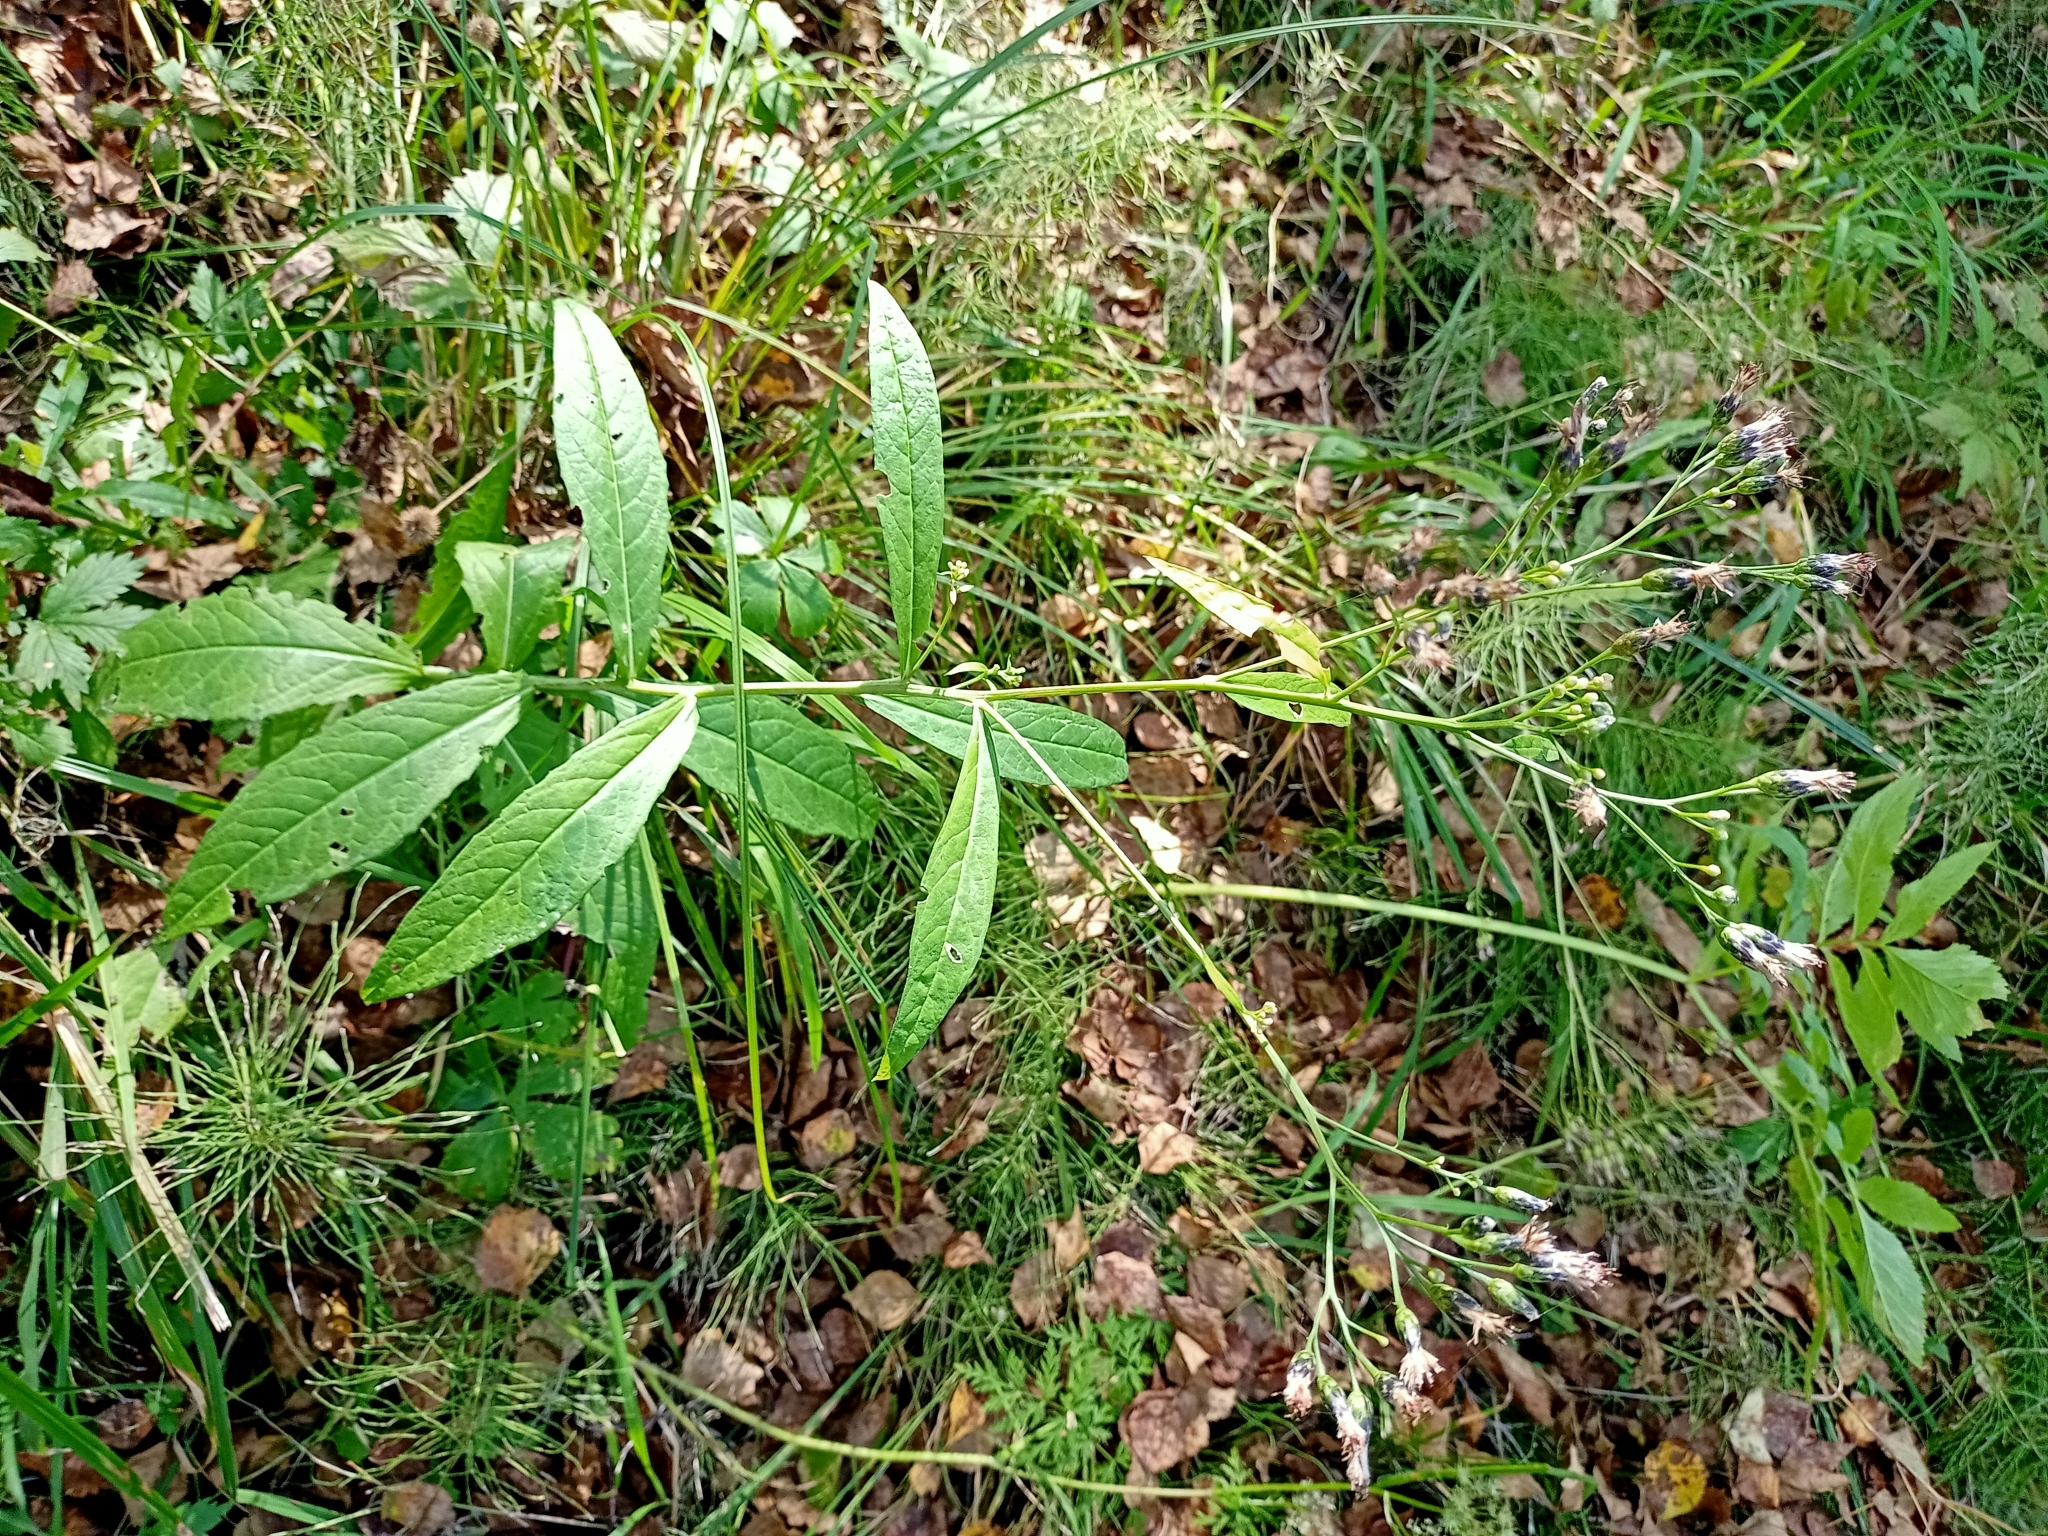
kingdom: Plantae
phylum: Tracheophyta
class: Magnoliopsida
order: Asterales
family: Asteraceae
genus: Saussurea
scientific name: Saussurea parviflora
